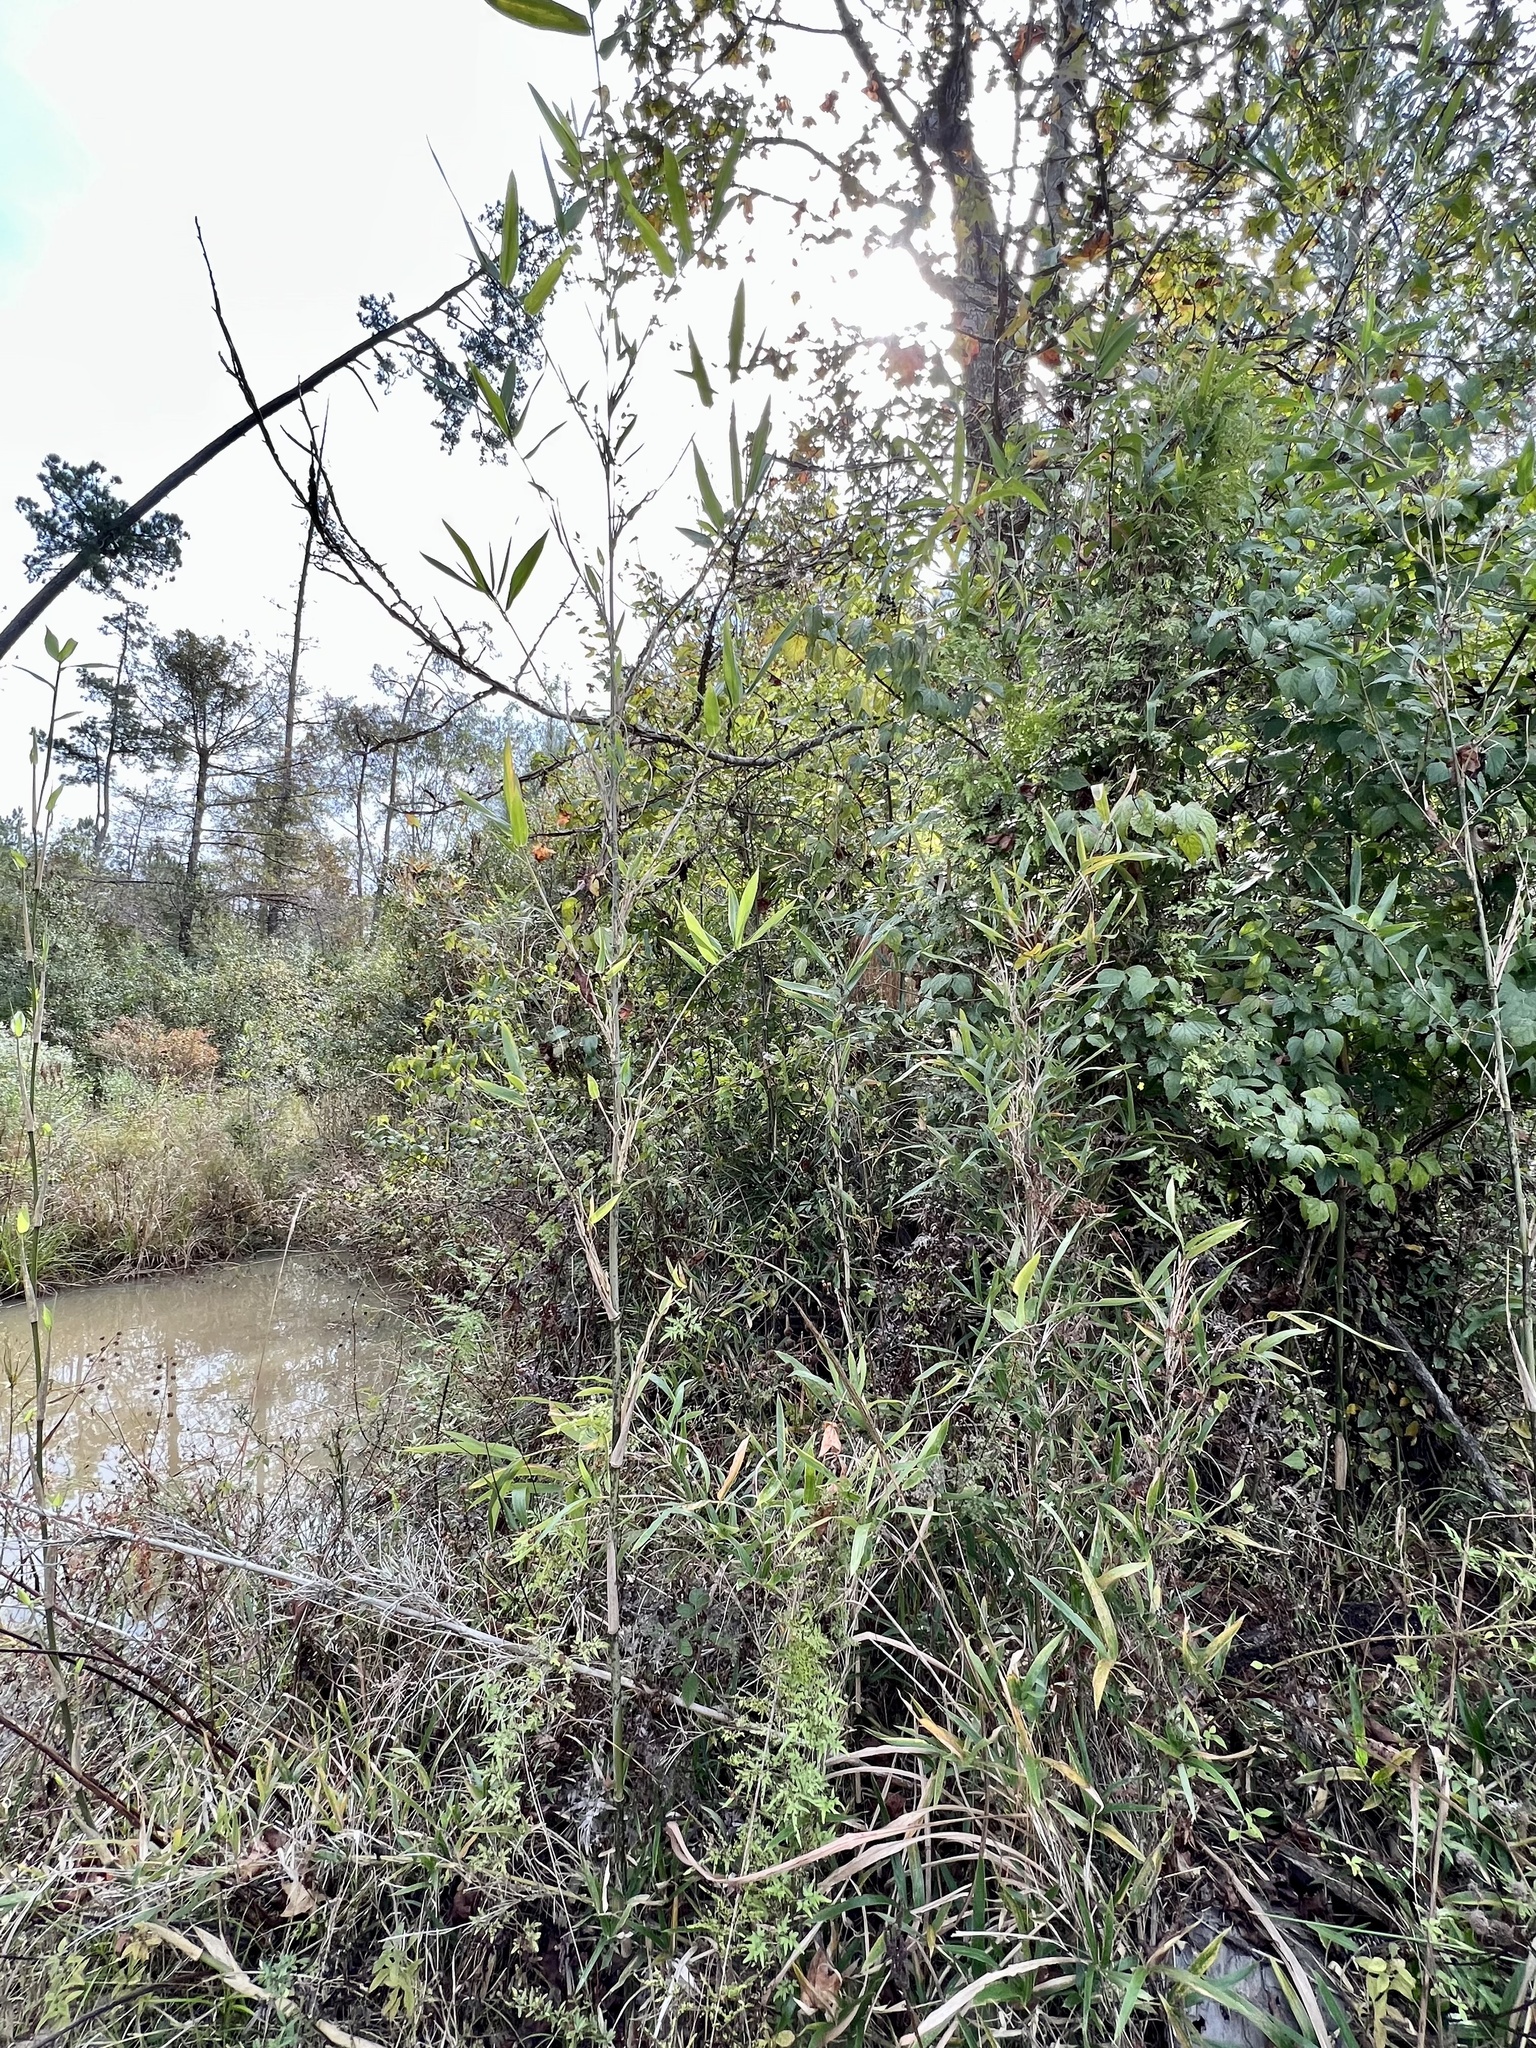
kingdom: Plantae
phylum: Tracheophyta
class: Liliopsida
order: Poales
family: Poaceae
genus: Arundinaria
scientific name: Arundinaria gigantea
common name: Giant cane
